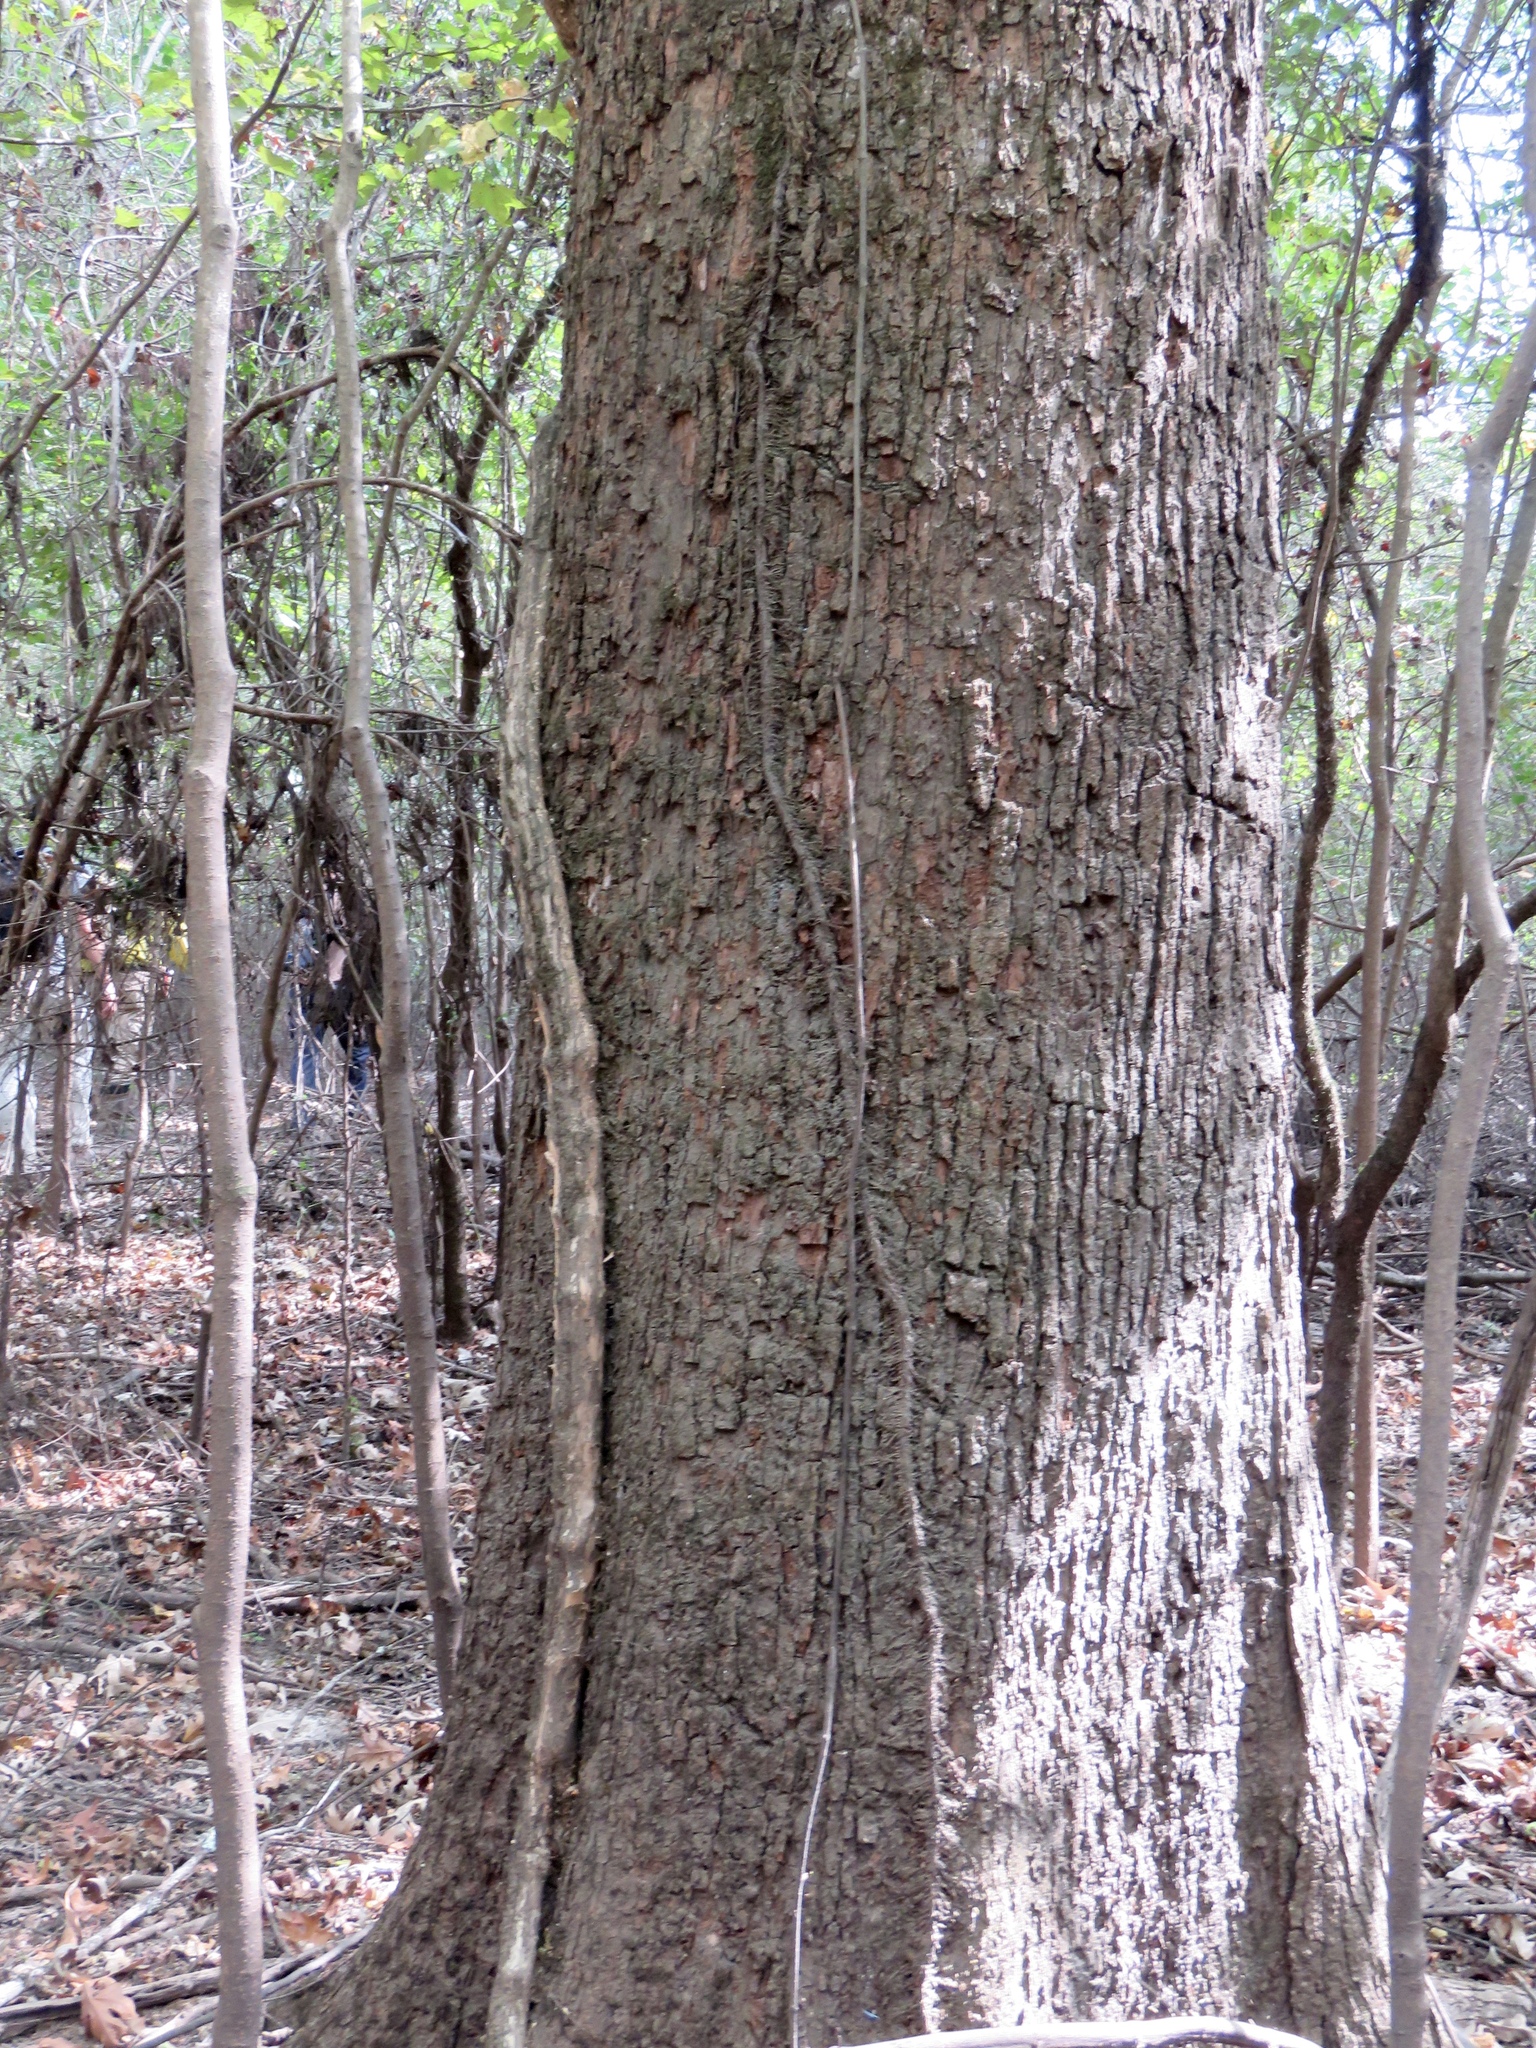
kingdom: Plantae
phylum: Tracheophyta
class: Magnoliopsida
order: Fagales
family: Fagaceae
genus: Quercus
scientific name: Quercus lyrata
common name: Overcup oak
